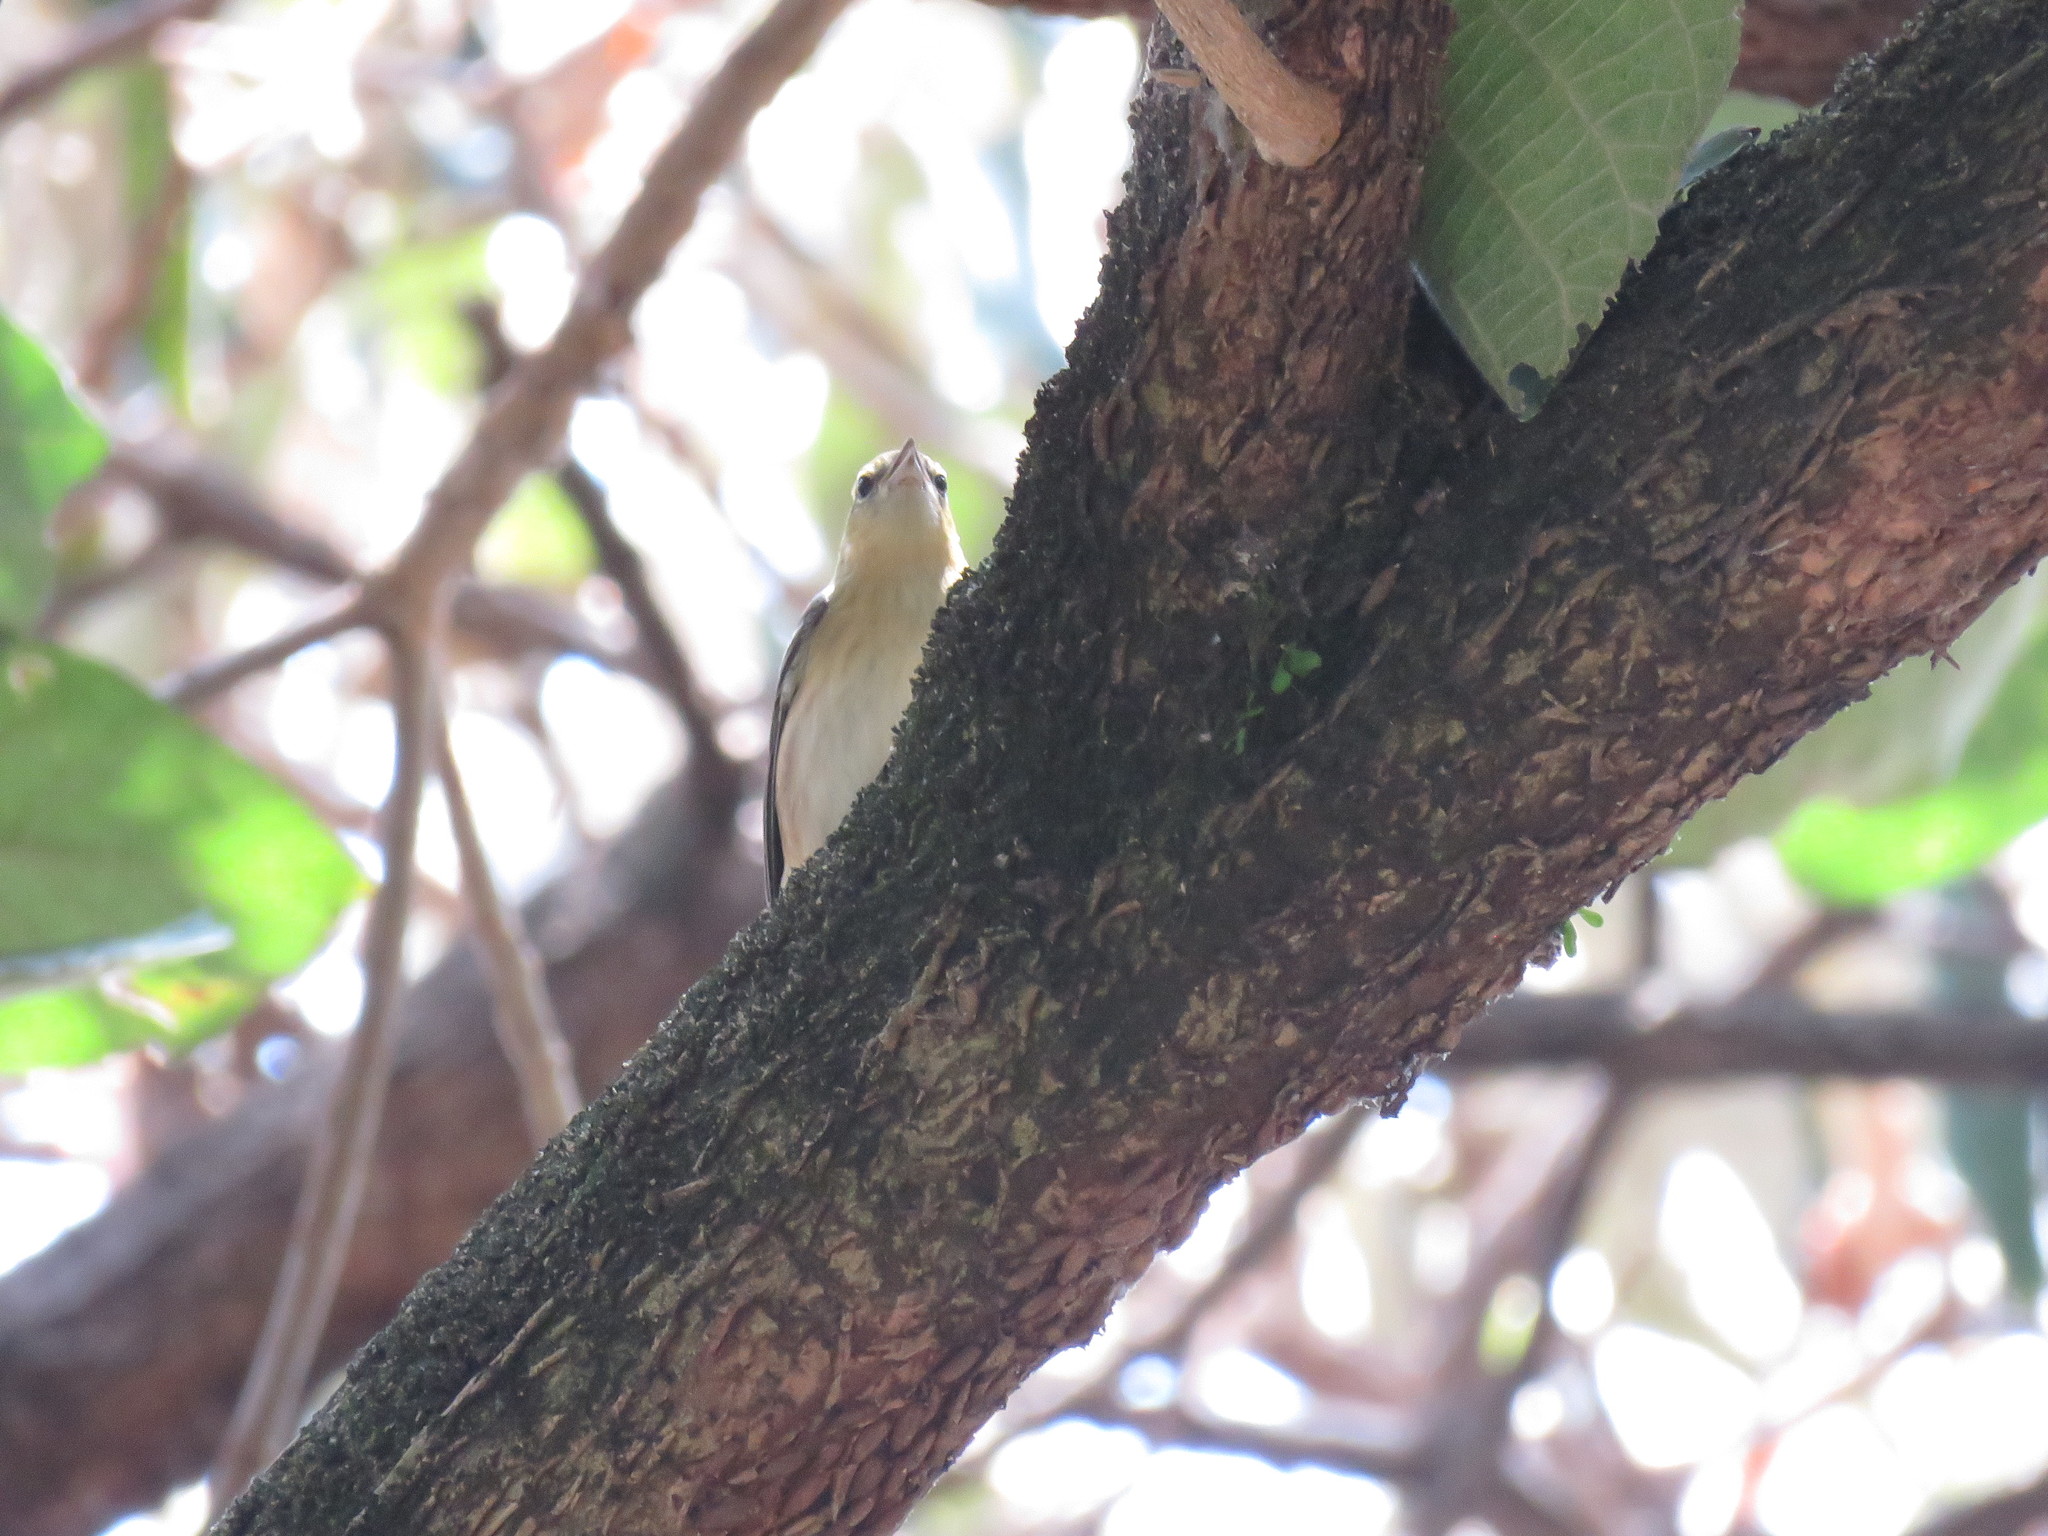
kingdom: Animalia
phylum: Chordata
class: Aves
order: Passeriformes
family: Parulidae
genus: Setophaga
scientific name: Setophaga castanea
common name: Bay-breasted warbler
